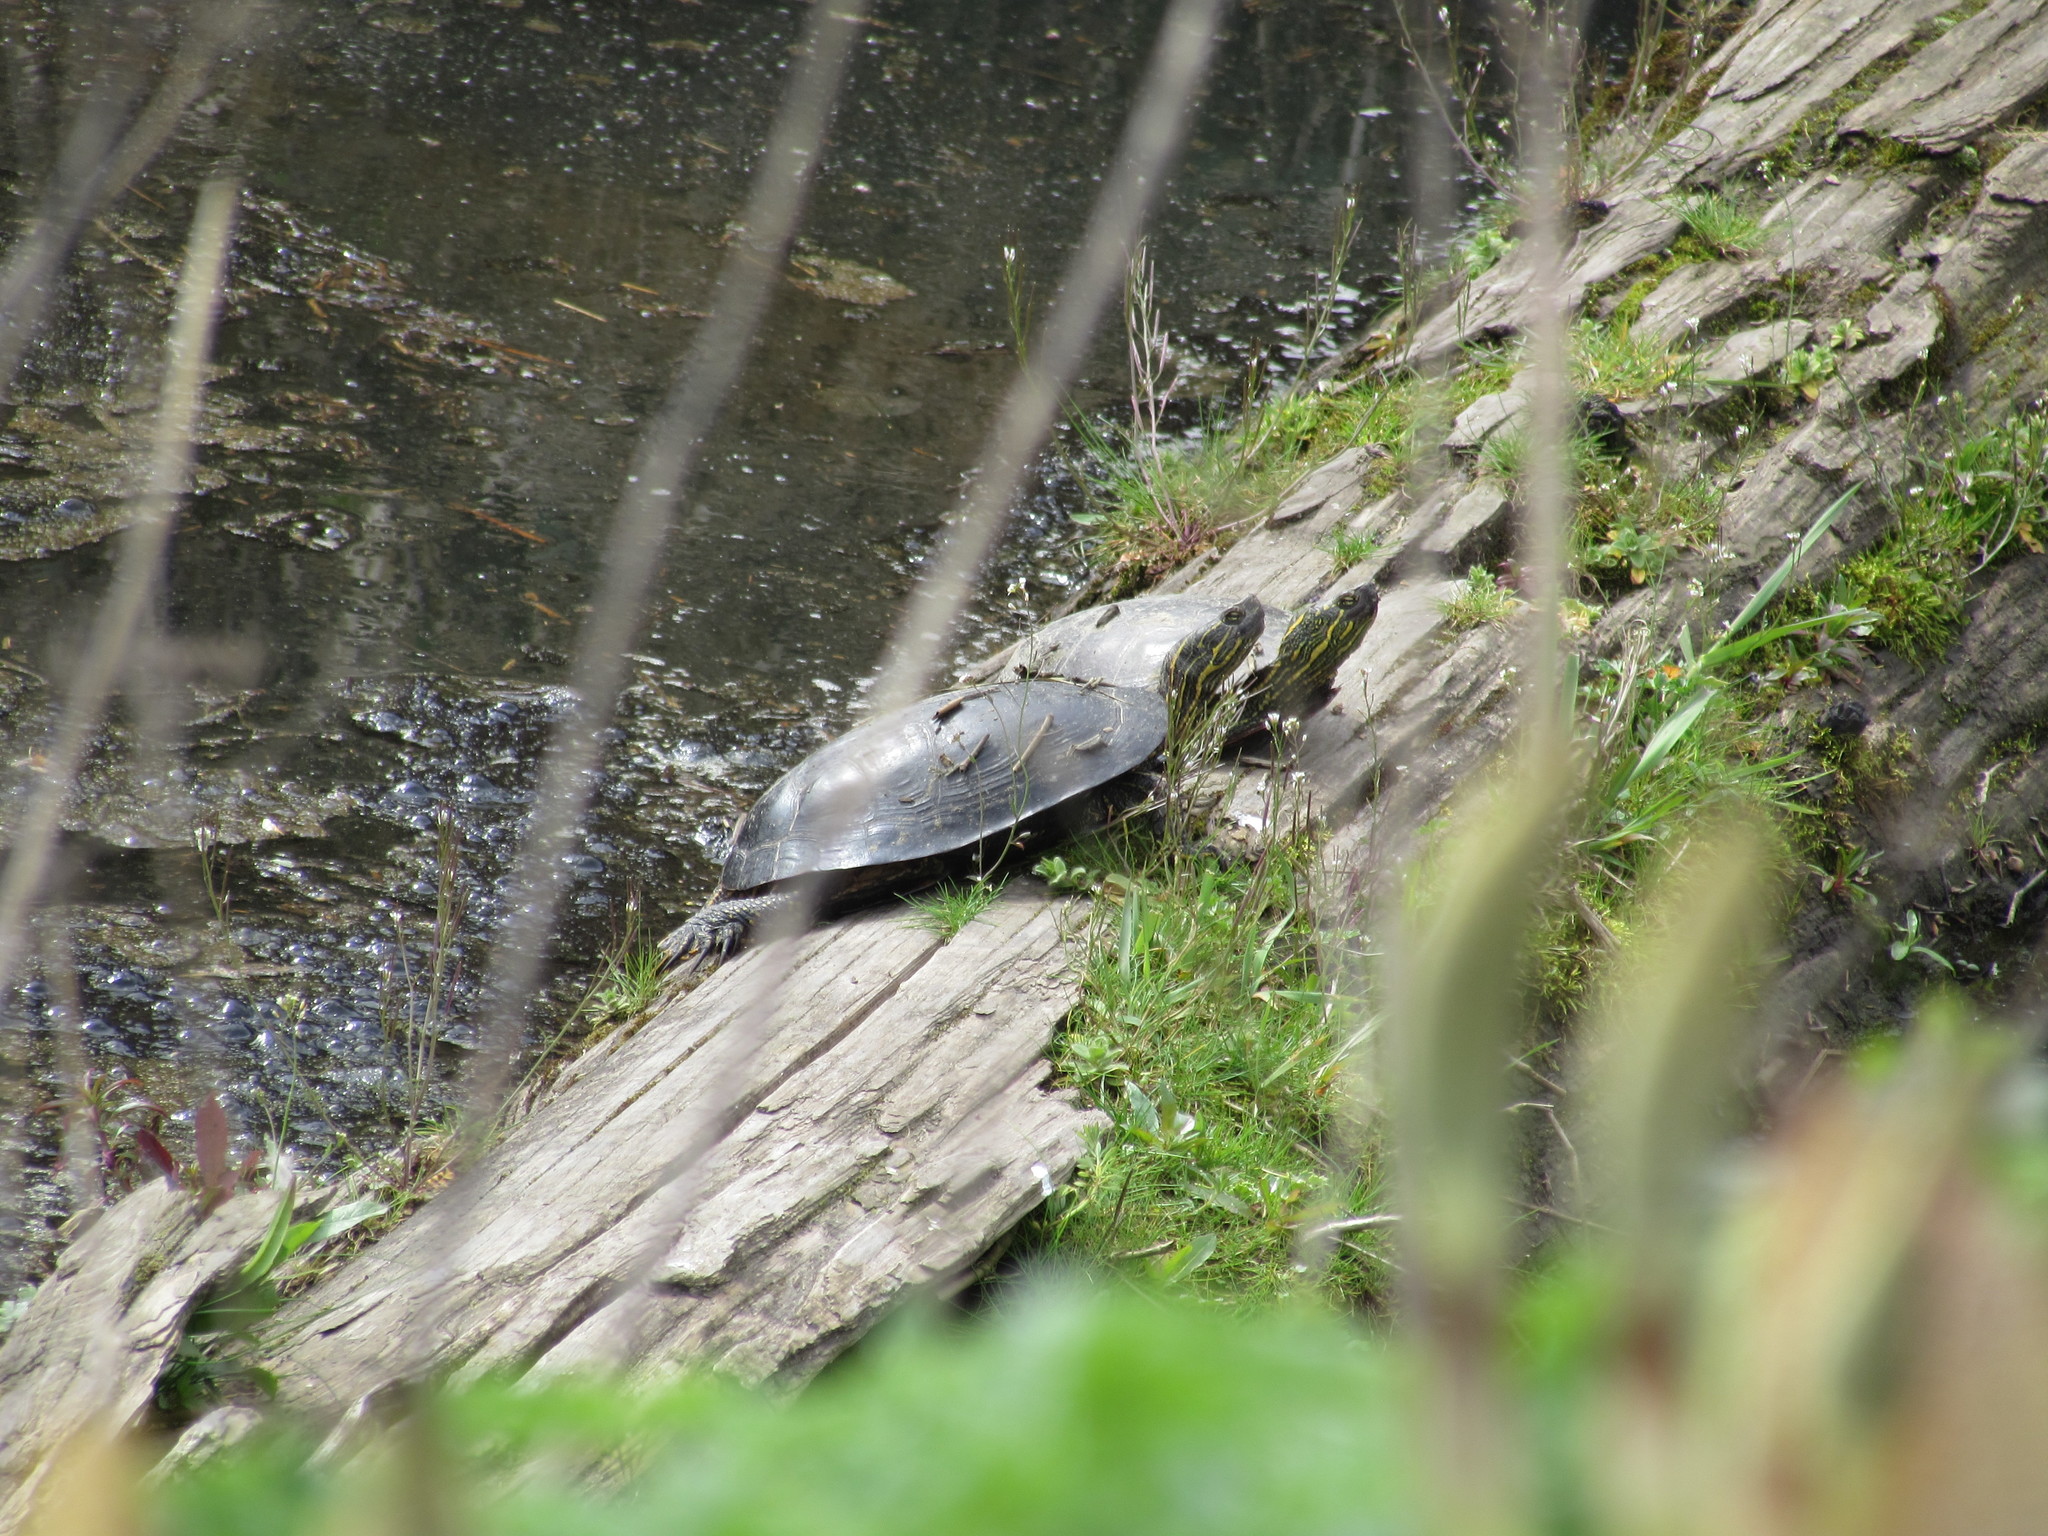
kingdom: Animalia
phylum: Chordata
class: Testudines
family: Emydidae
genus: Chrysemys
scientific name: Chrysemys picta
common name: Painted turtle
